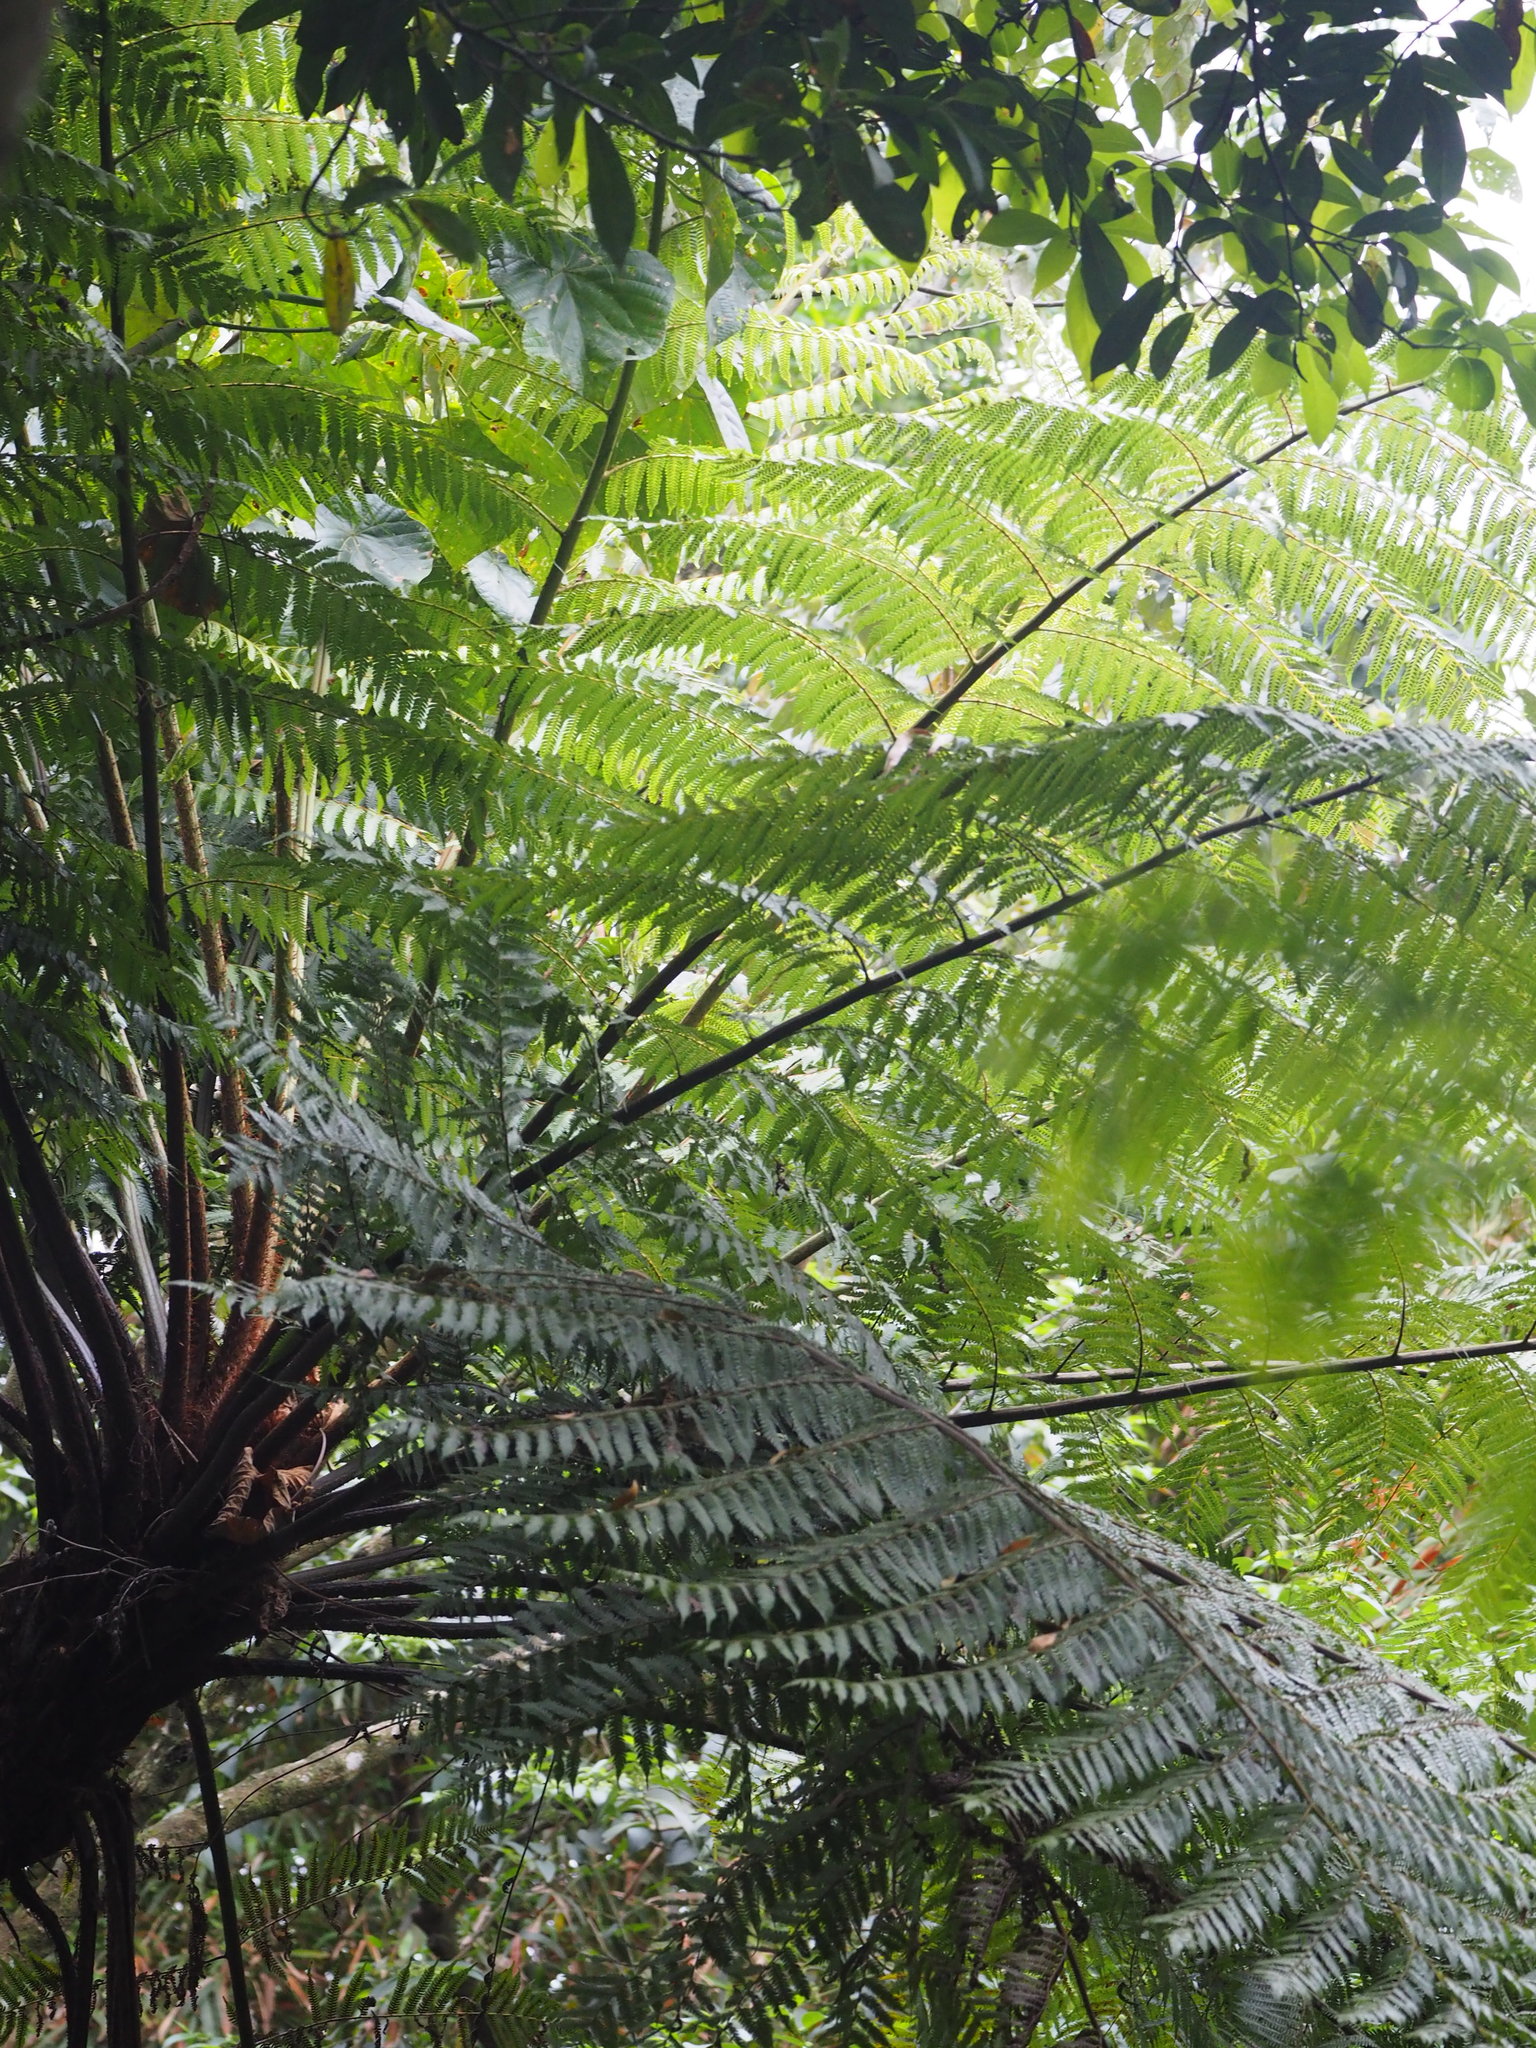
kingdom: Plantae
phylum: Tracheophyta
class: Polypodiopsida
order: Cyatheales
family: Cyatheaceae
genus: Alsophila
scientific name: Alsophila spinulosa
